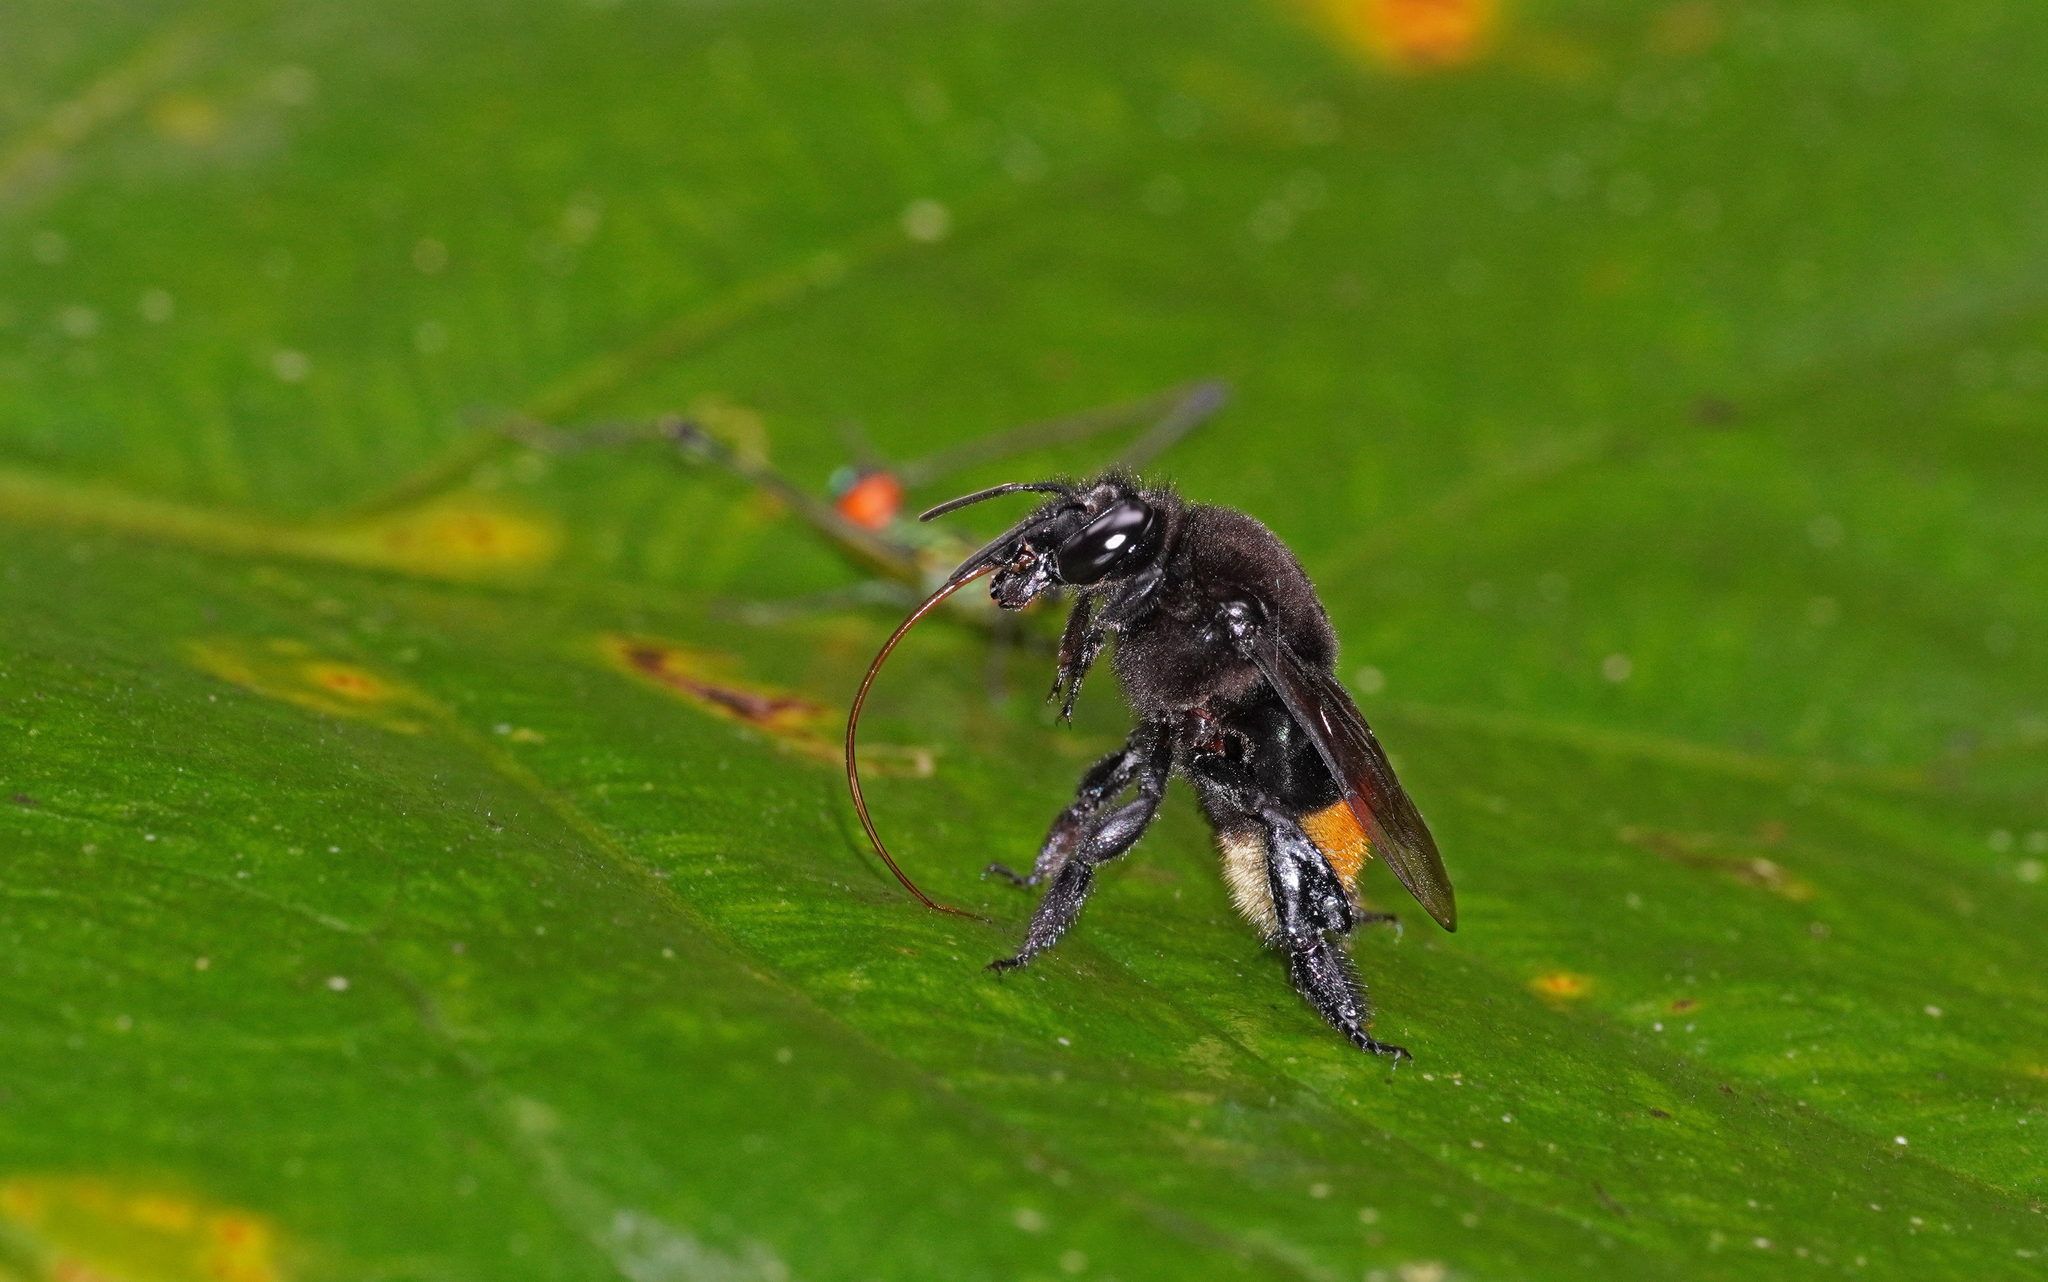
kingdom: Animalia
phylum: Arthropoda
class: Insecta
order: Hymenoptera
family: Apidae
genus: Eulaema
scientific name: Eulaema speciosa
